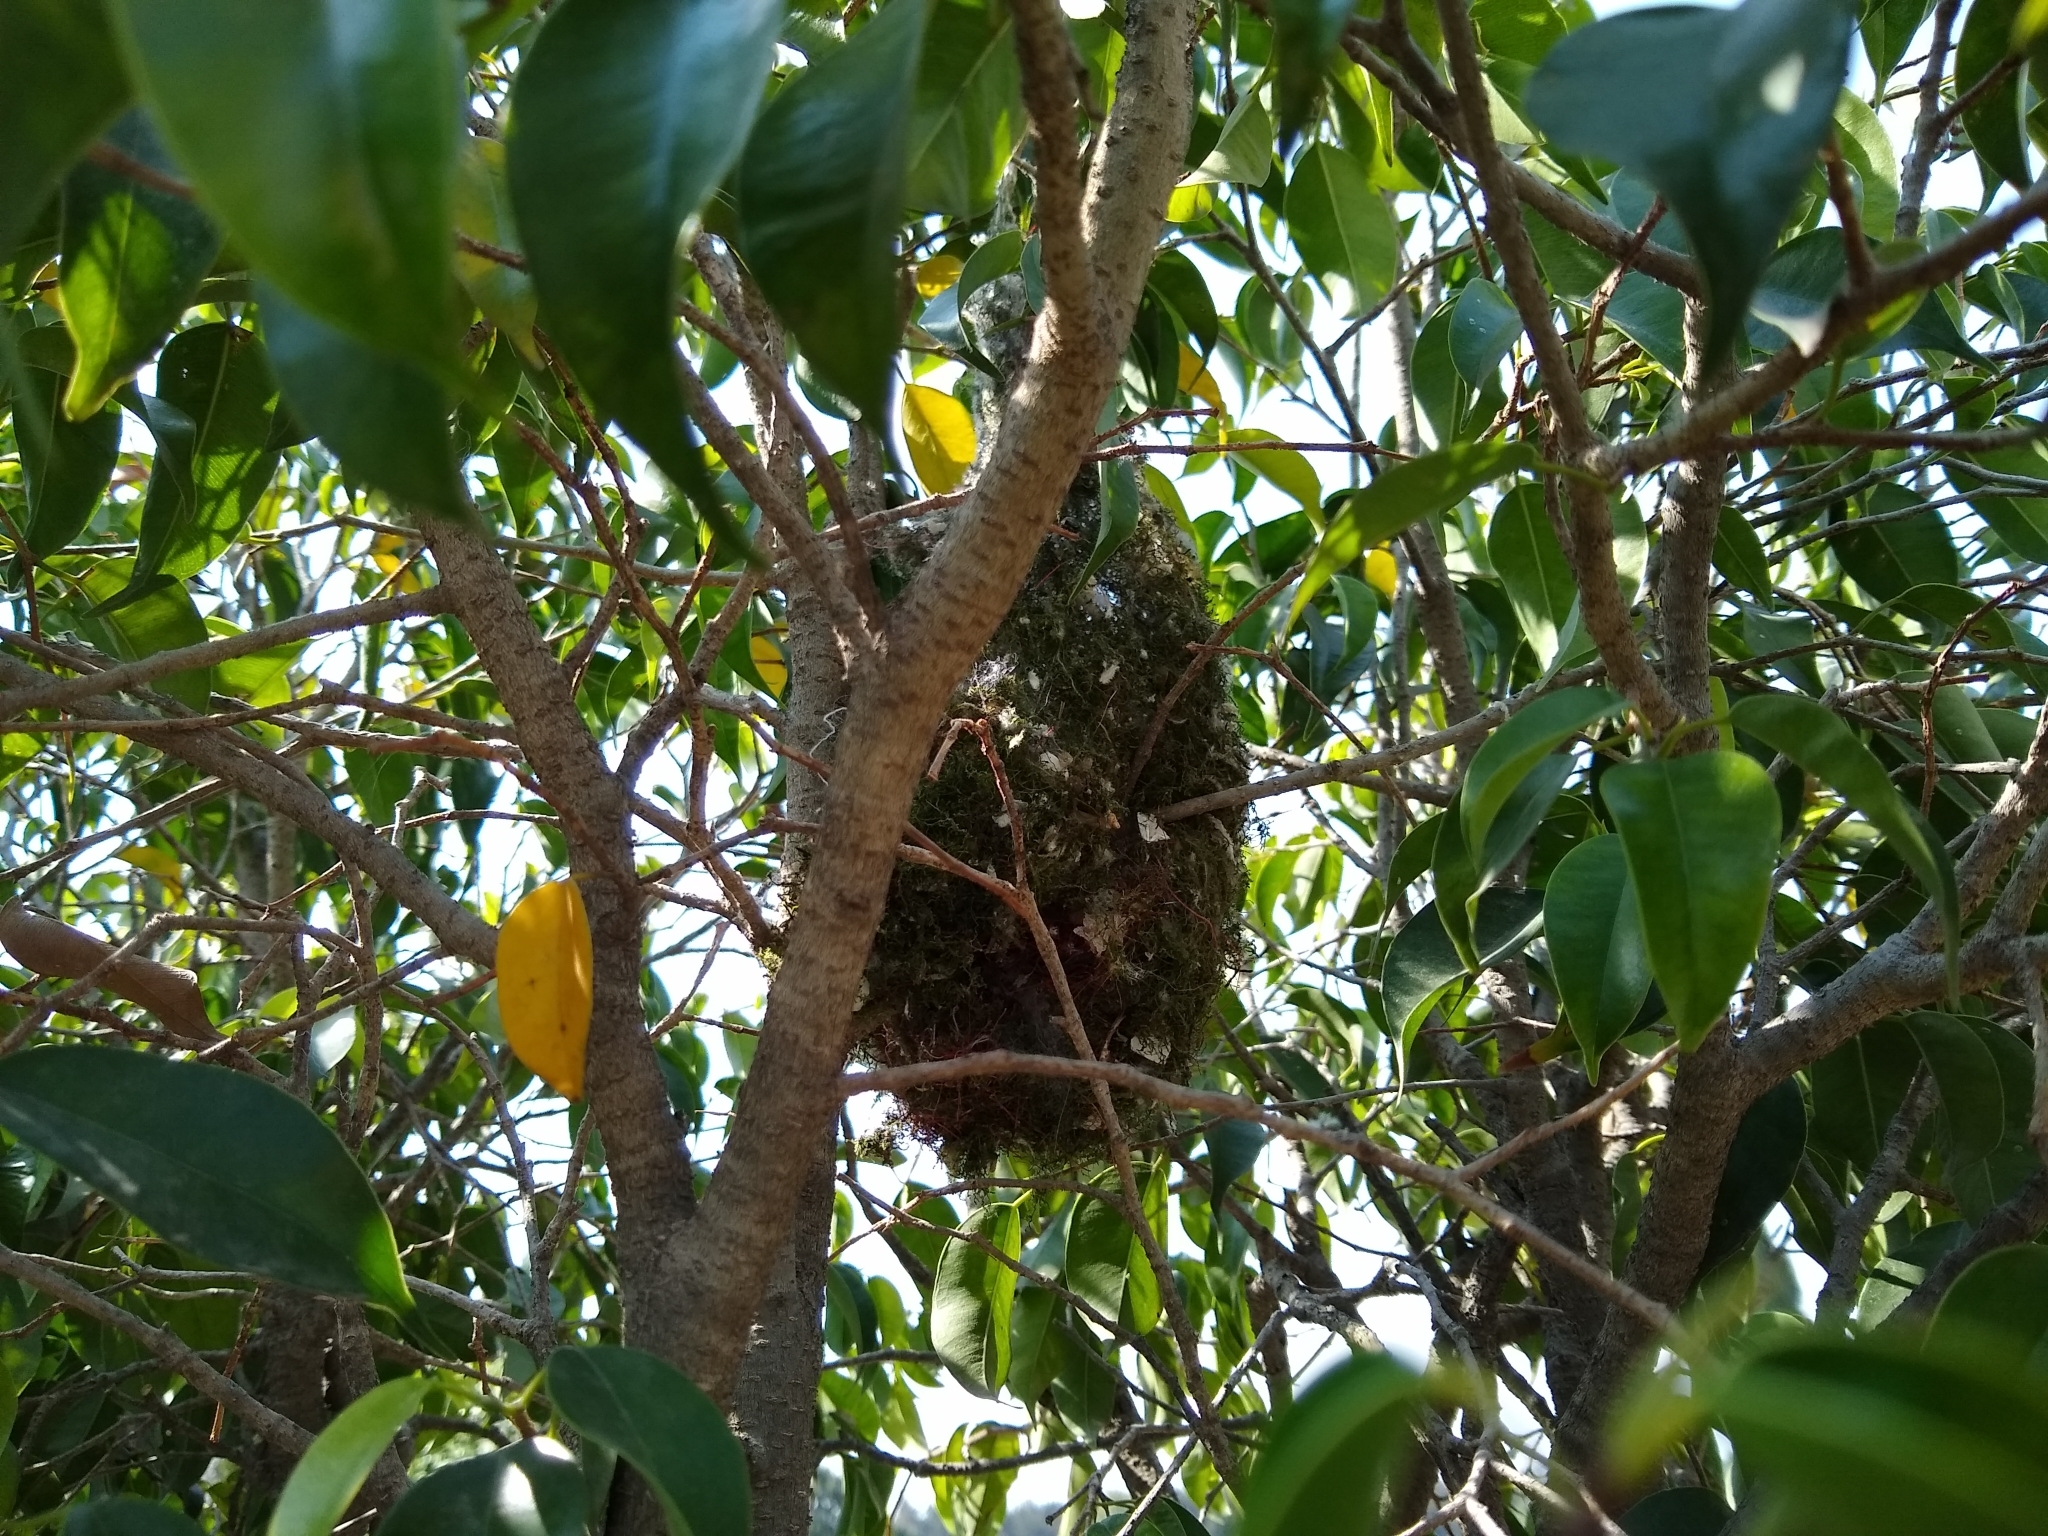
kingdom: Animalia
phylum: Chordata
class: Aves
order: Passeriformes
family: Aegithalidae
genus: Psaltriparus
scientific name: Psaltriparus minimus
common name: American bushtit
